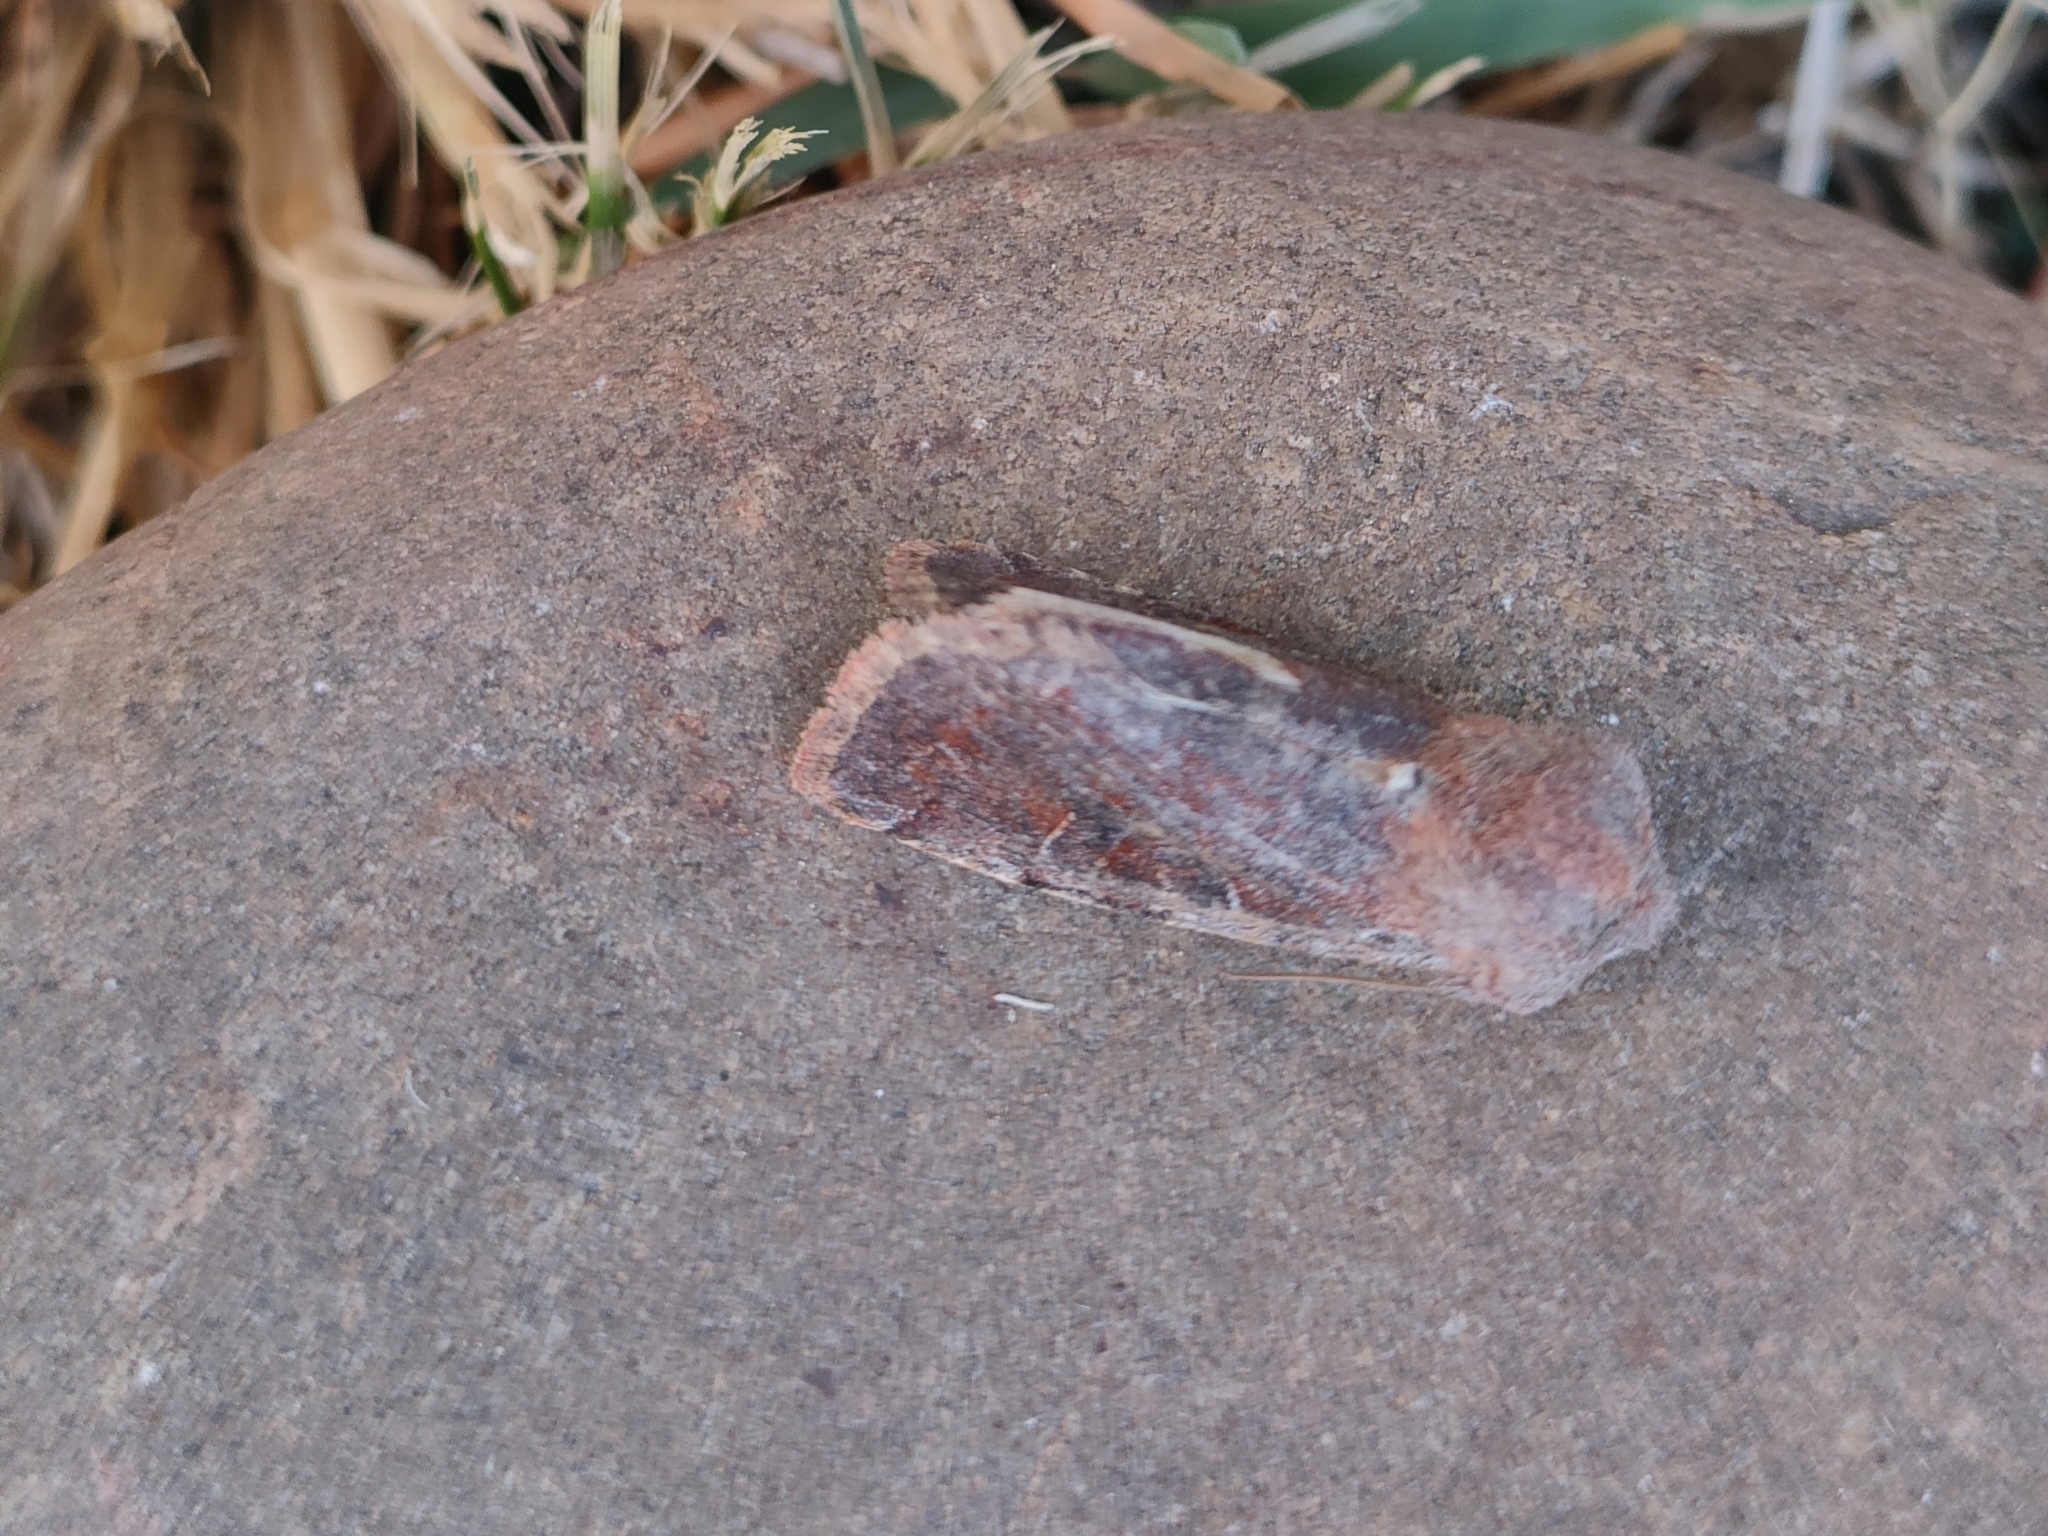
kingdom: Animalia
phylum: Arthropoda
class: Insecta
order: Lepidoptera
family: Noctuidae
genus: Orthosia
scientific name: Orthosia incerta
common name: Clouded drab
